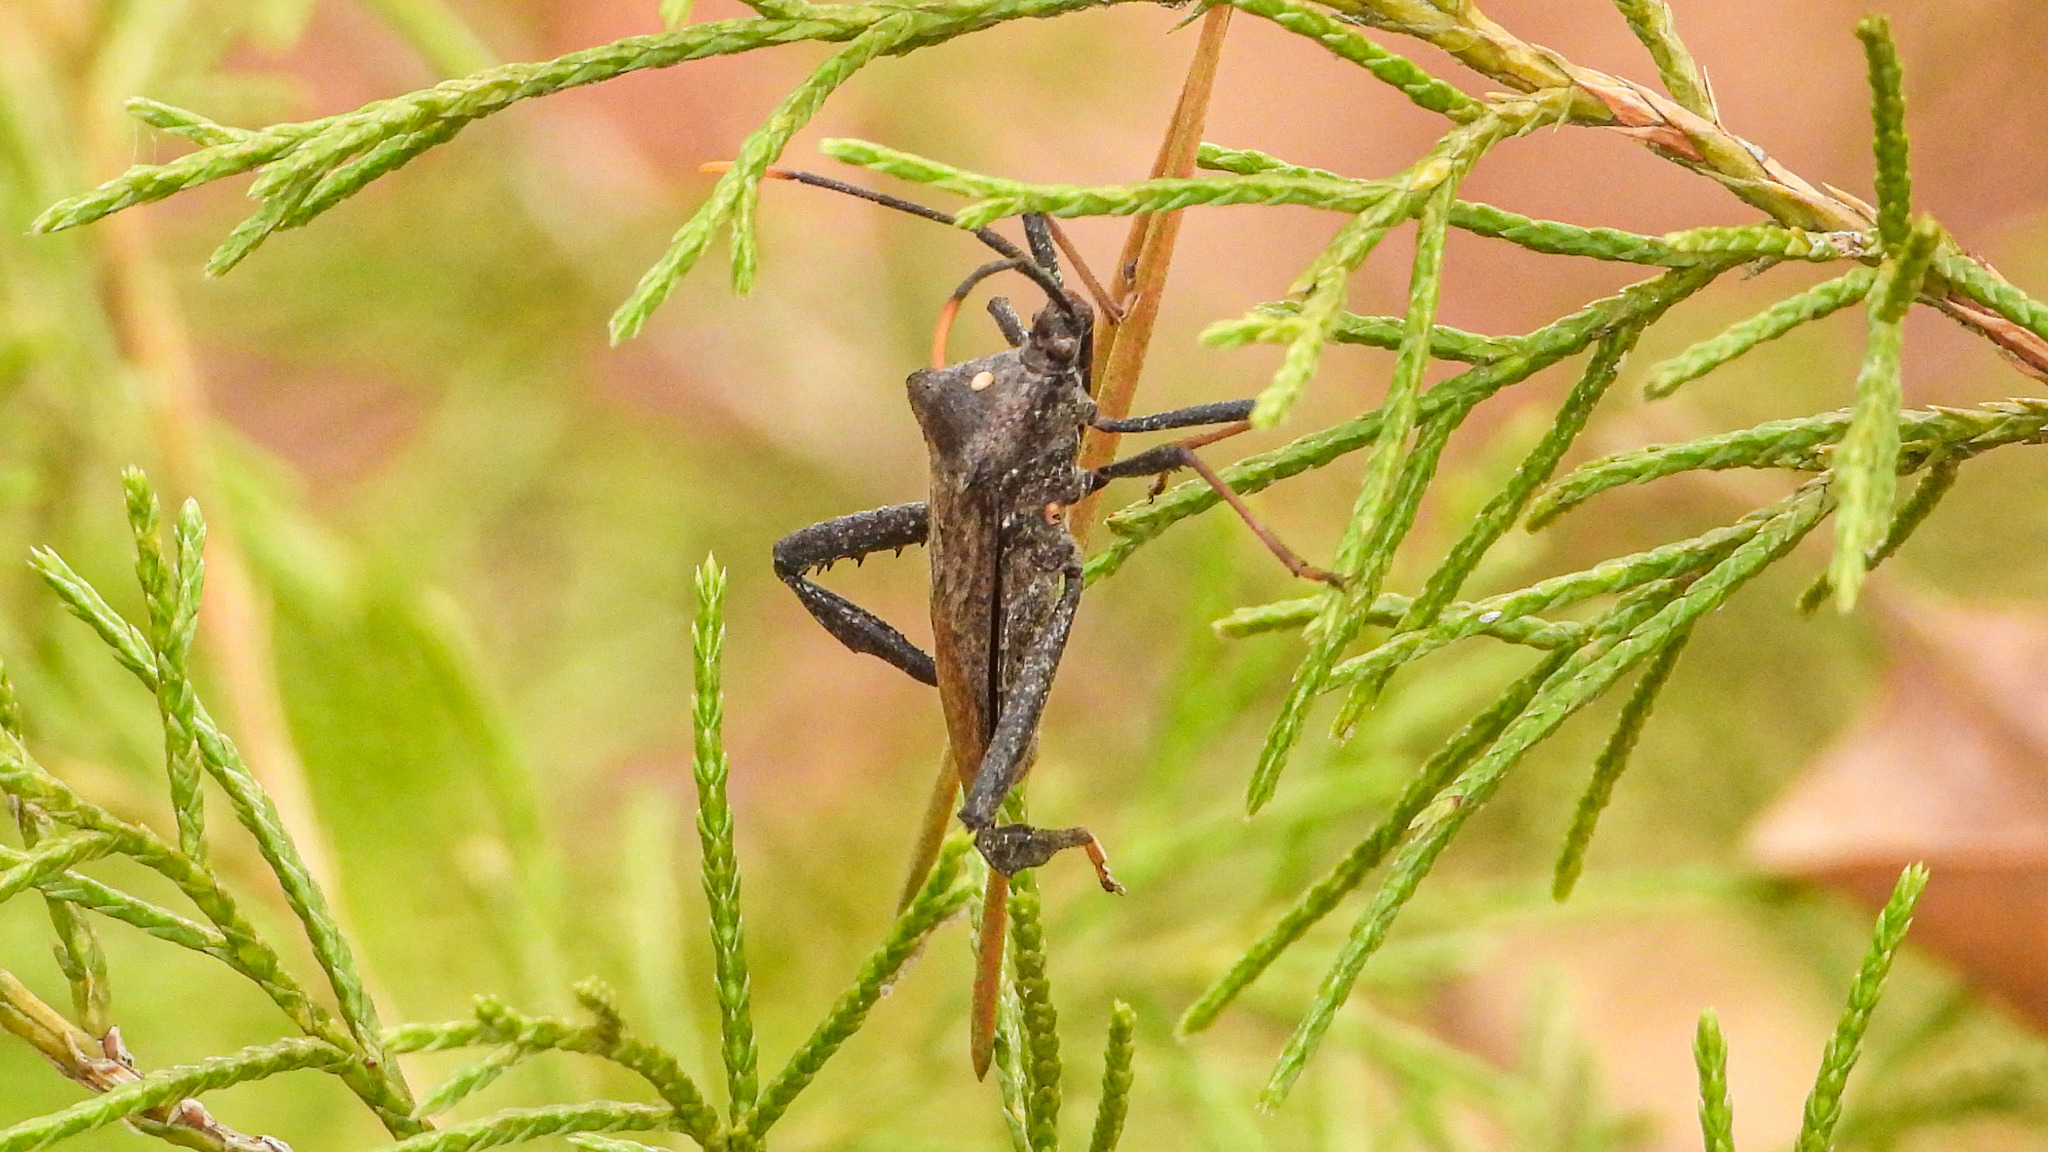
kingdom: Animalia
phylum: Arthropoda
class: Insecta
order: Hemiptera
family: Coreidae
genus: Acanthocephala
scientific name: Acanthocephala declivis
